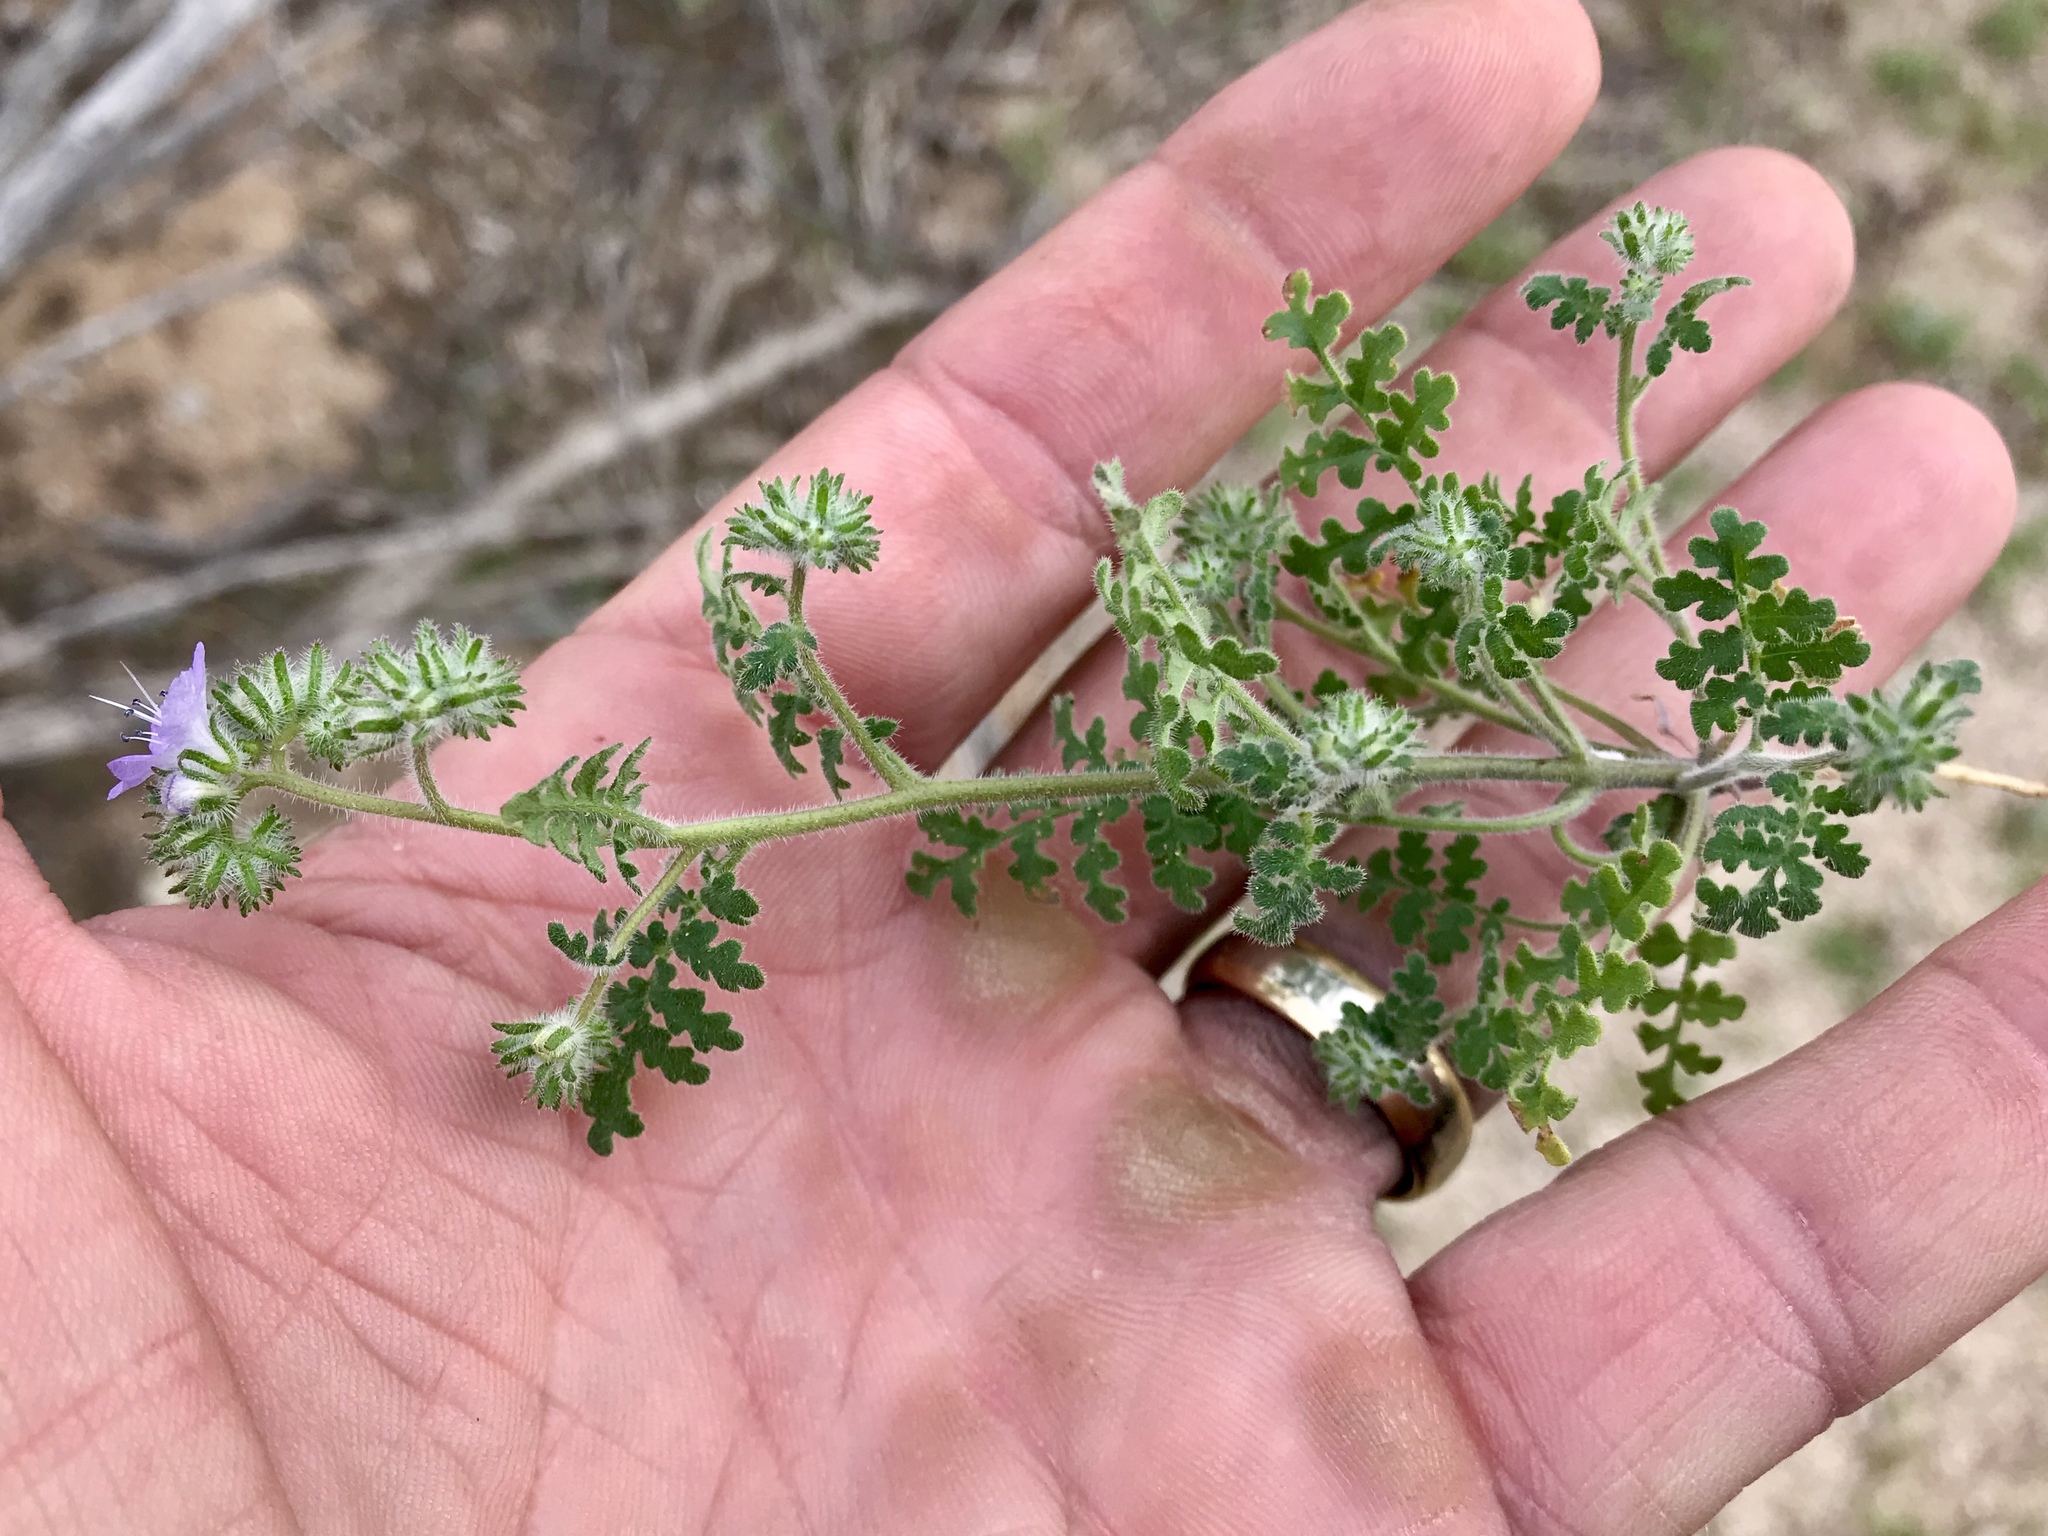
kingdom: Plantae
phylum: Tracheophyta
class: Magnoliopsida
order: Boraginales
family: Hydrophyllaceae
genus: Phacelia
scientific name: Phacelia distans
